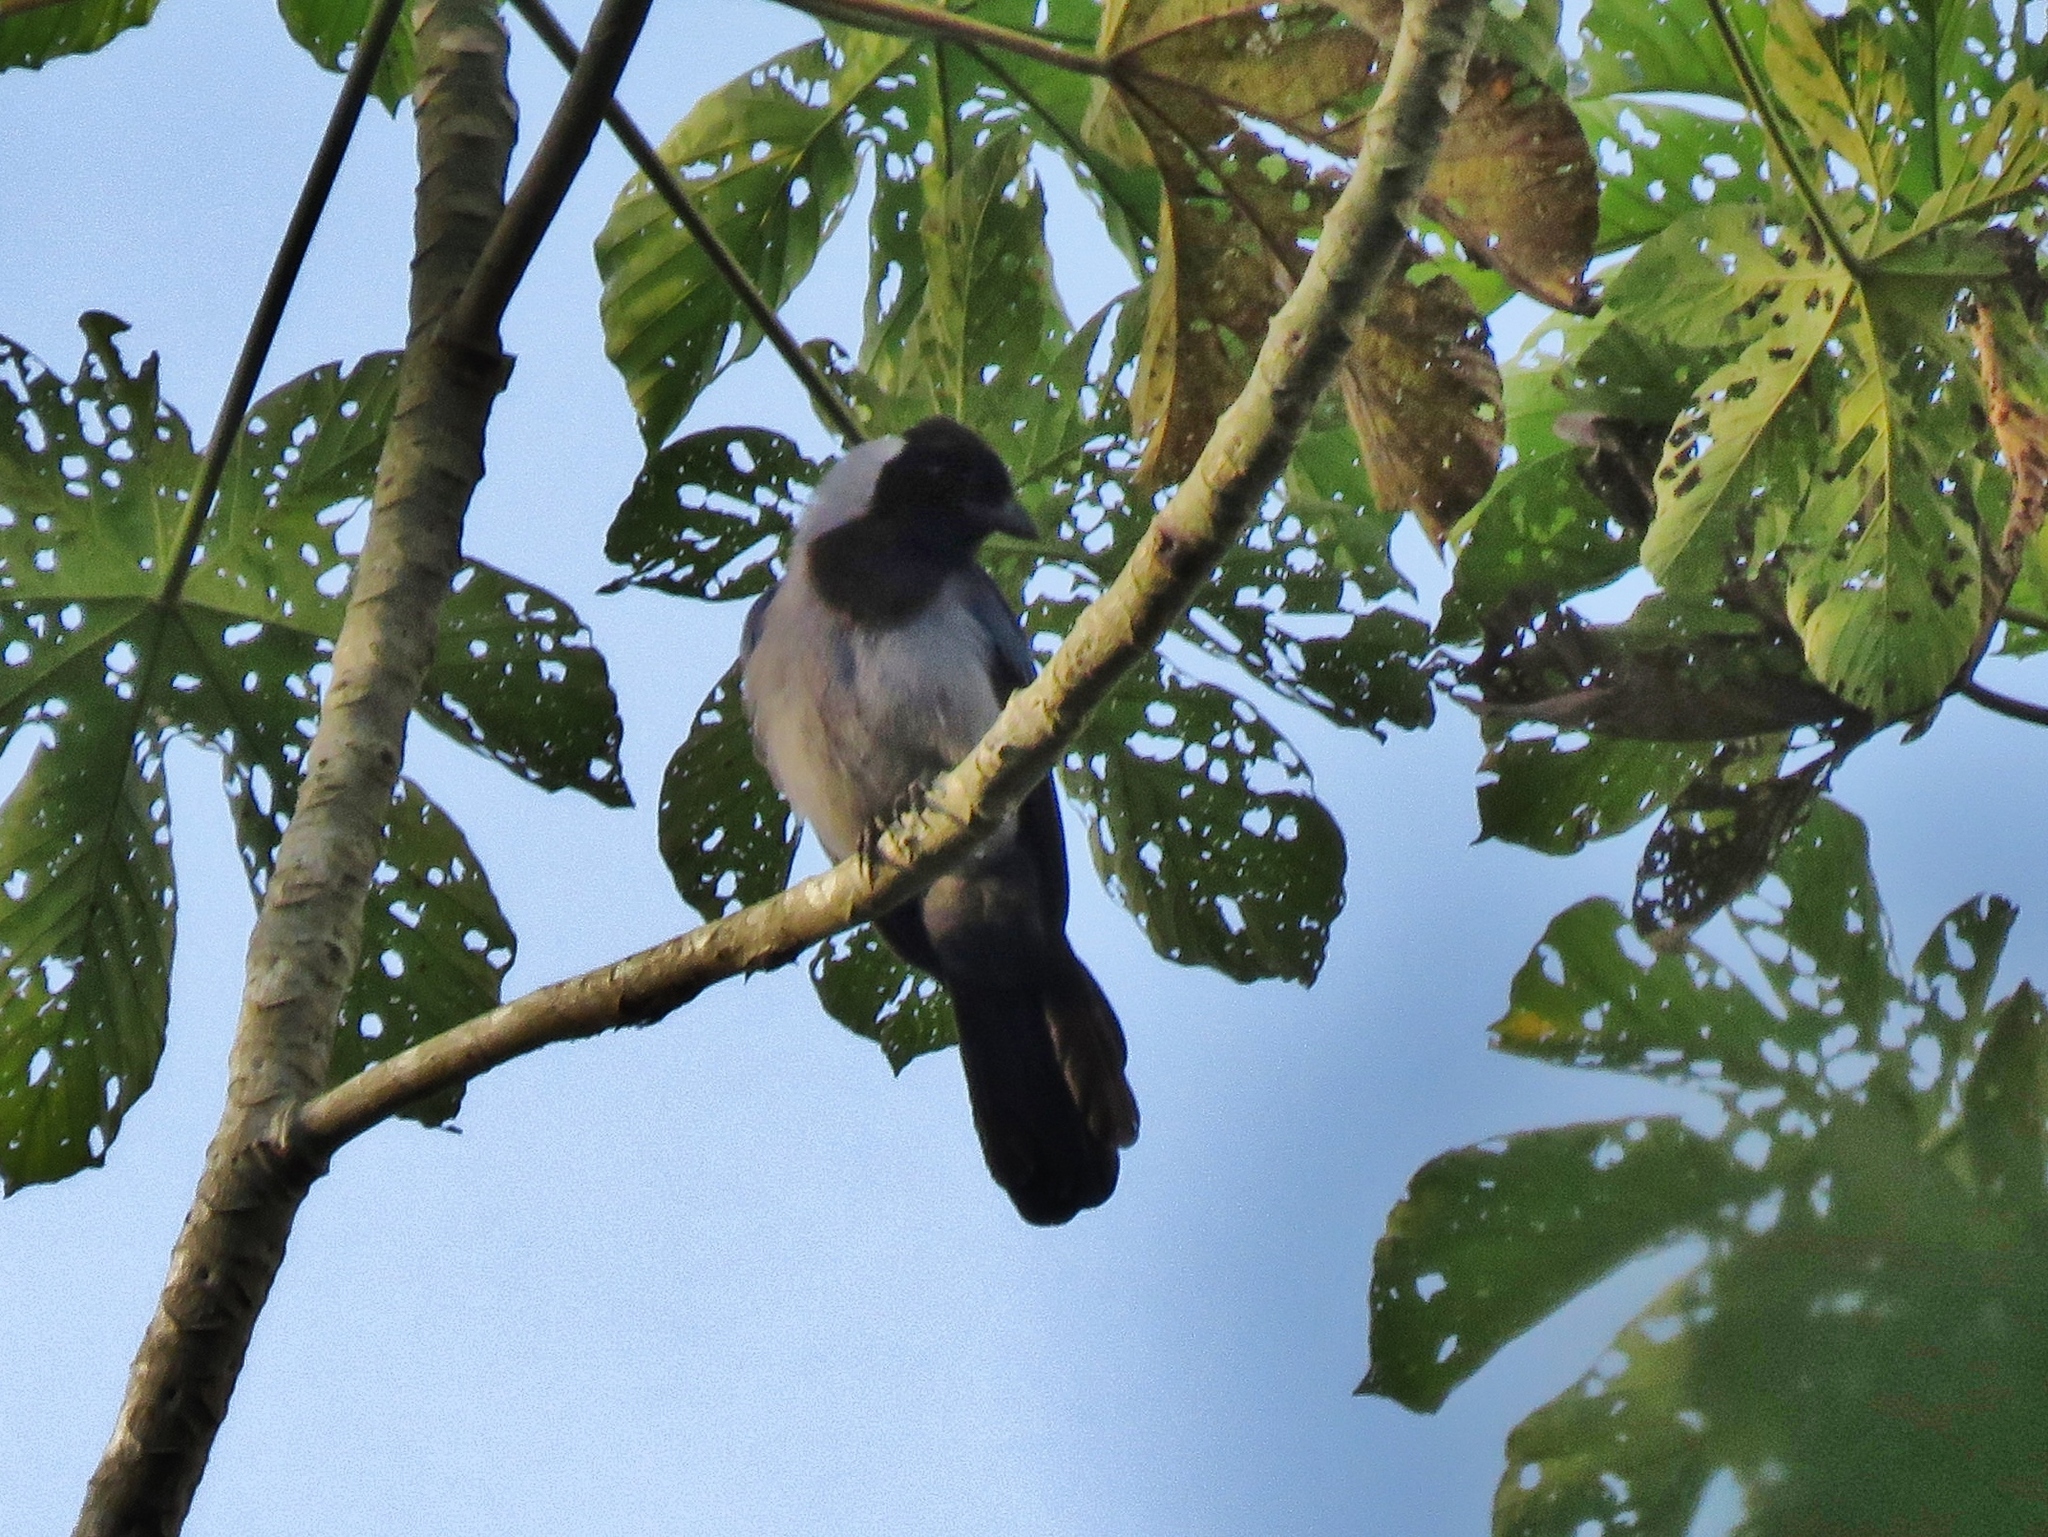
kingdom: Animalia
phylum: Chordata
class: Aves
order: Passeriformes
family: Corvidae
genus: Cyanocorax
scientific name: Cyanocorax violaceus
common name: Violaceous jay
